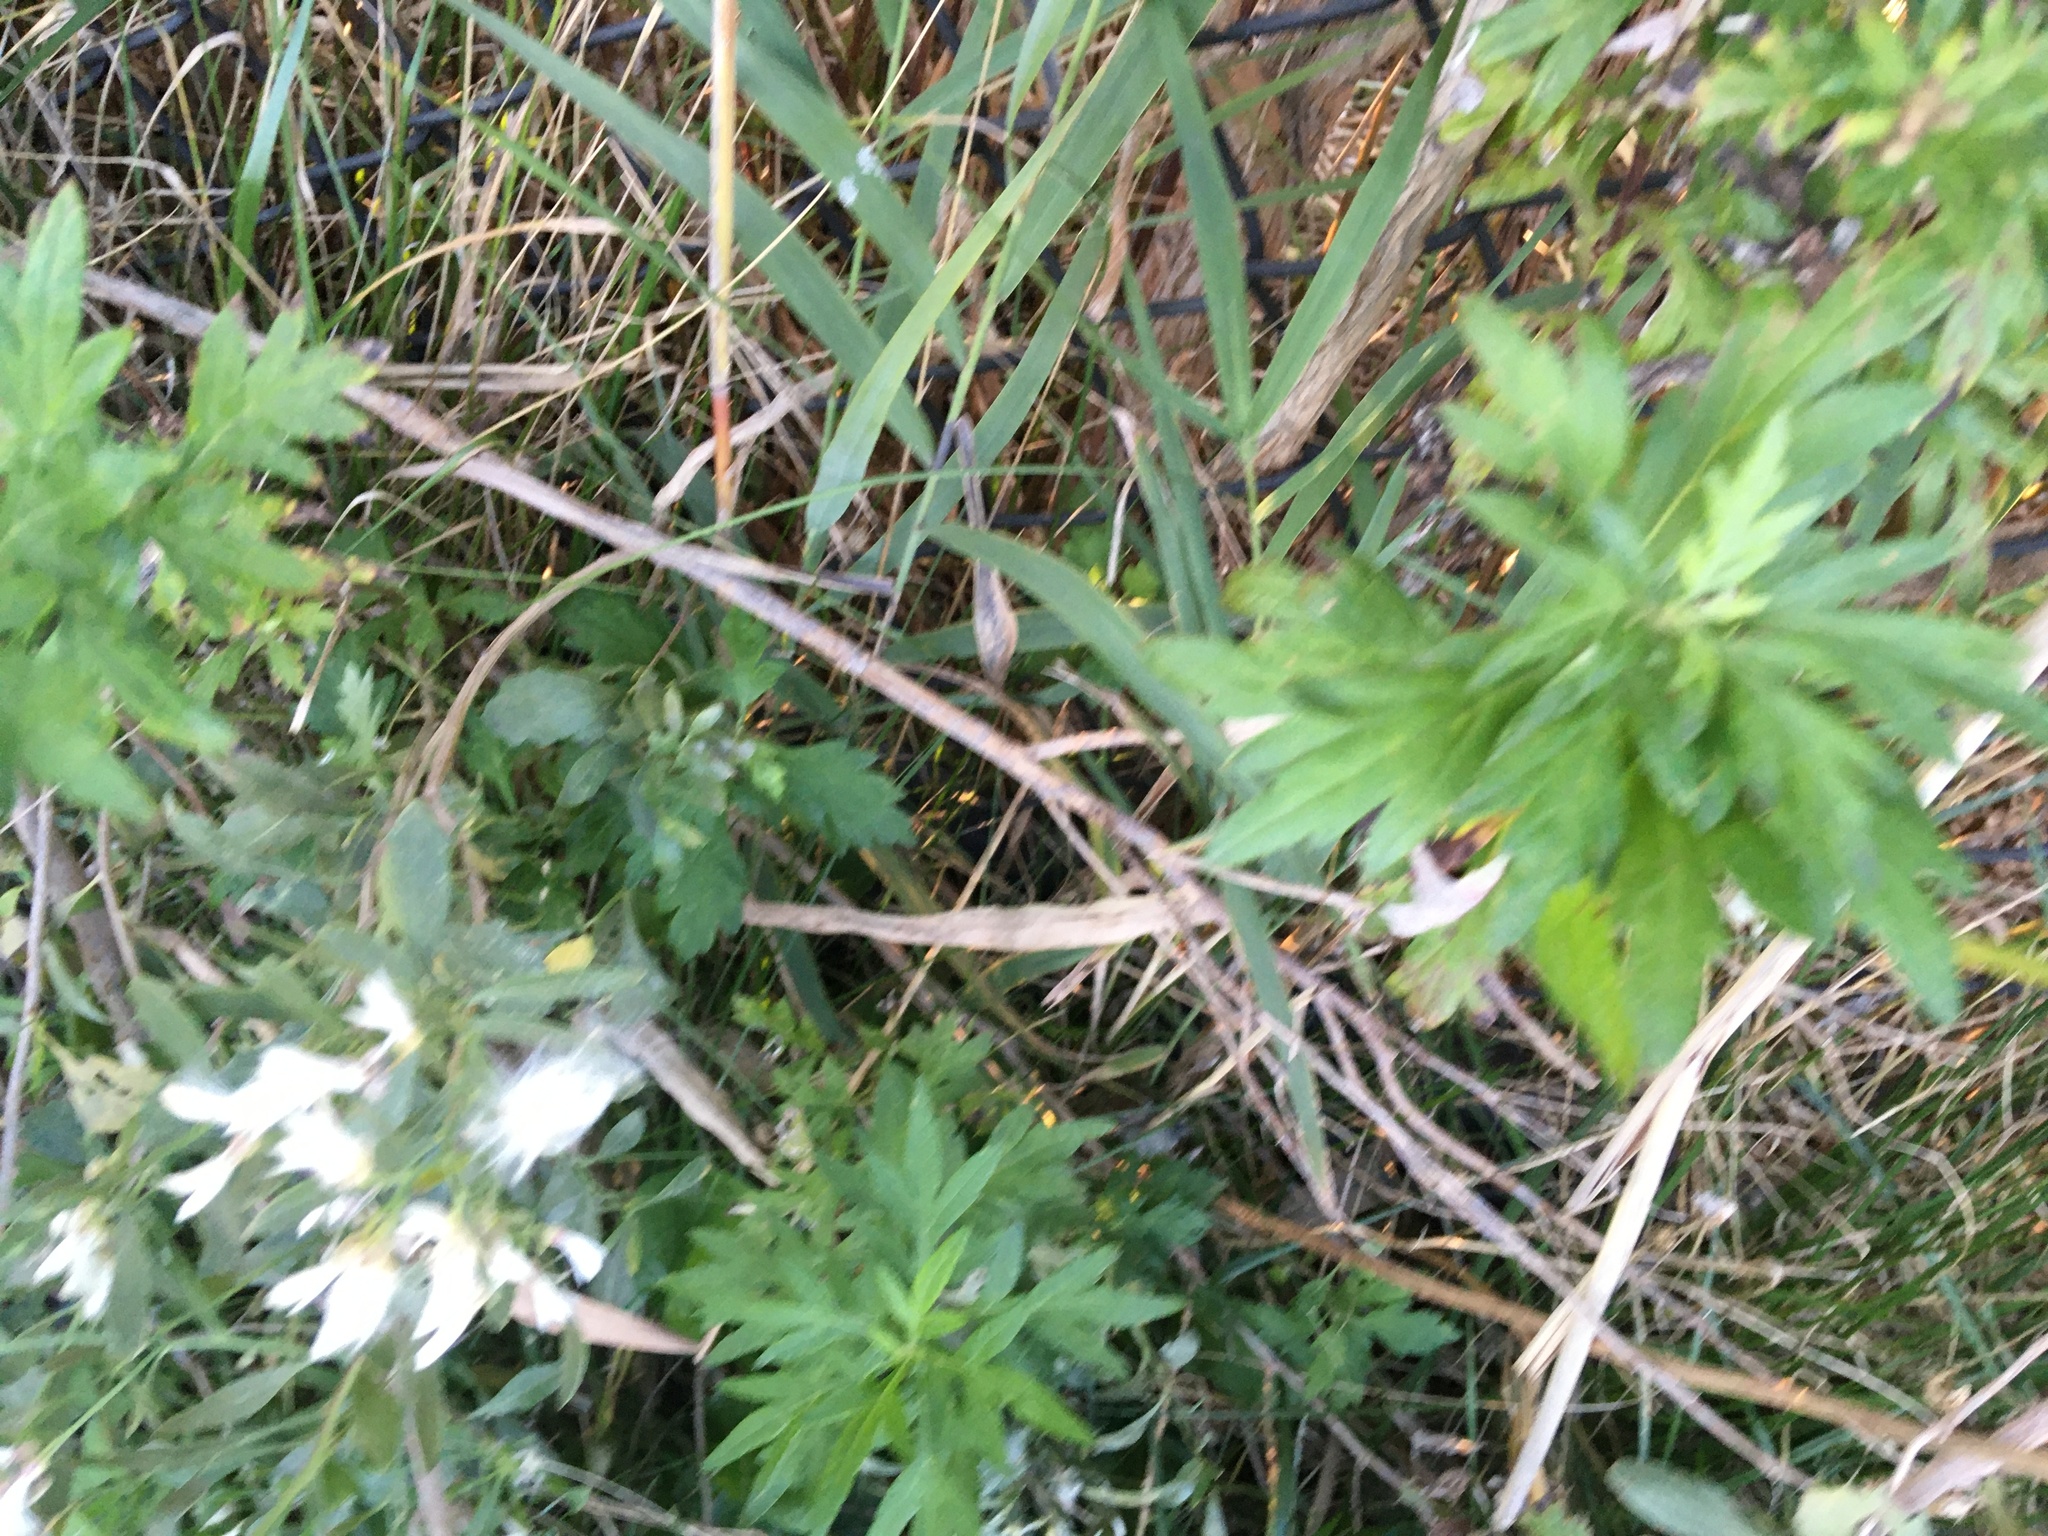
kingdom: Plantae
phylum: Tracheophyta
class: Magnoliopsida
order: Asterales
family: Asteraceae
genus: Artemisia
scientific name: Artemisia vulgaris
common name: Mugwort
